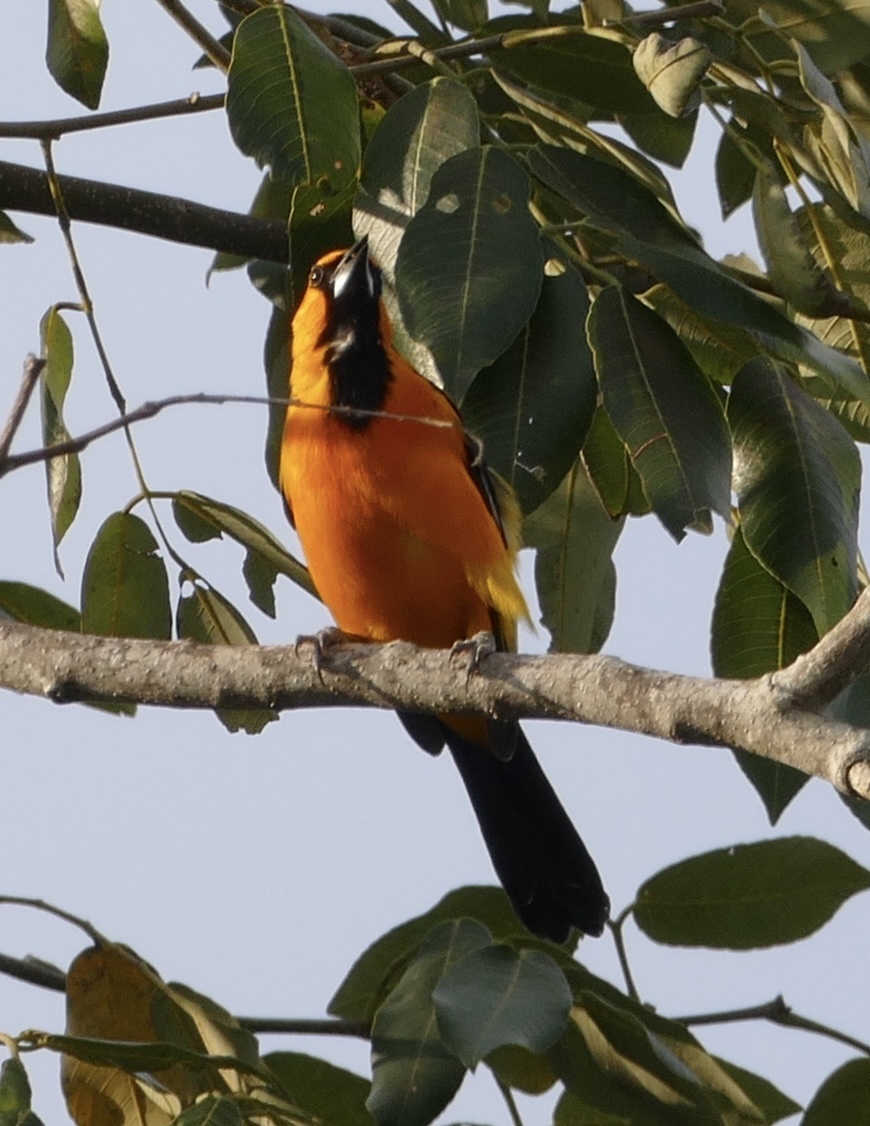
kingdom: Animalia
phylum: Chordata
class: Aves
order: Passeriformes
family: Icteridae
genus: Icterus
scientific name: Icterus gularis
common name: Altamira oriole
